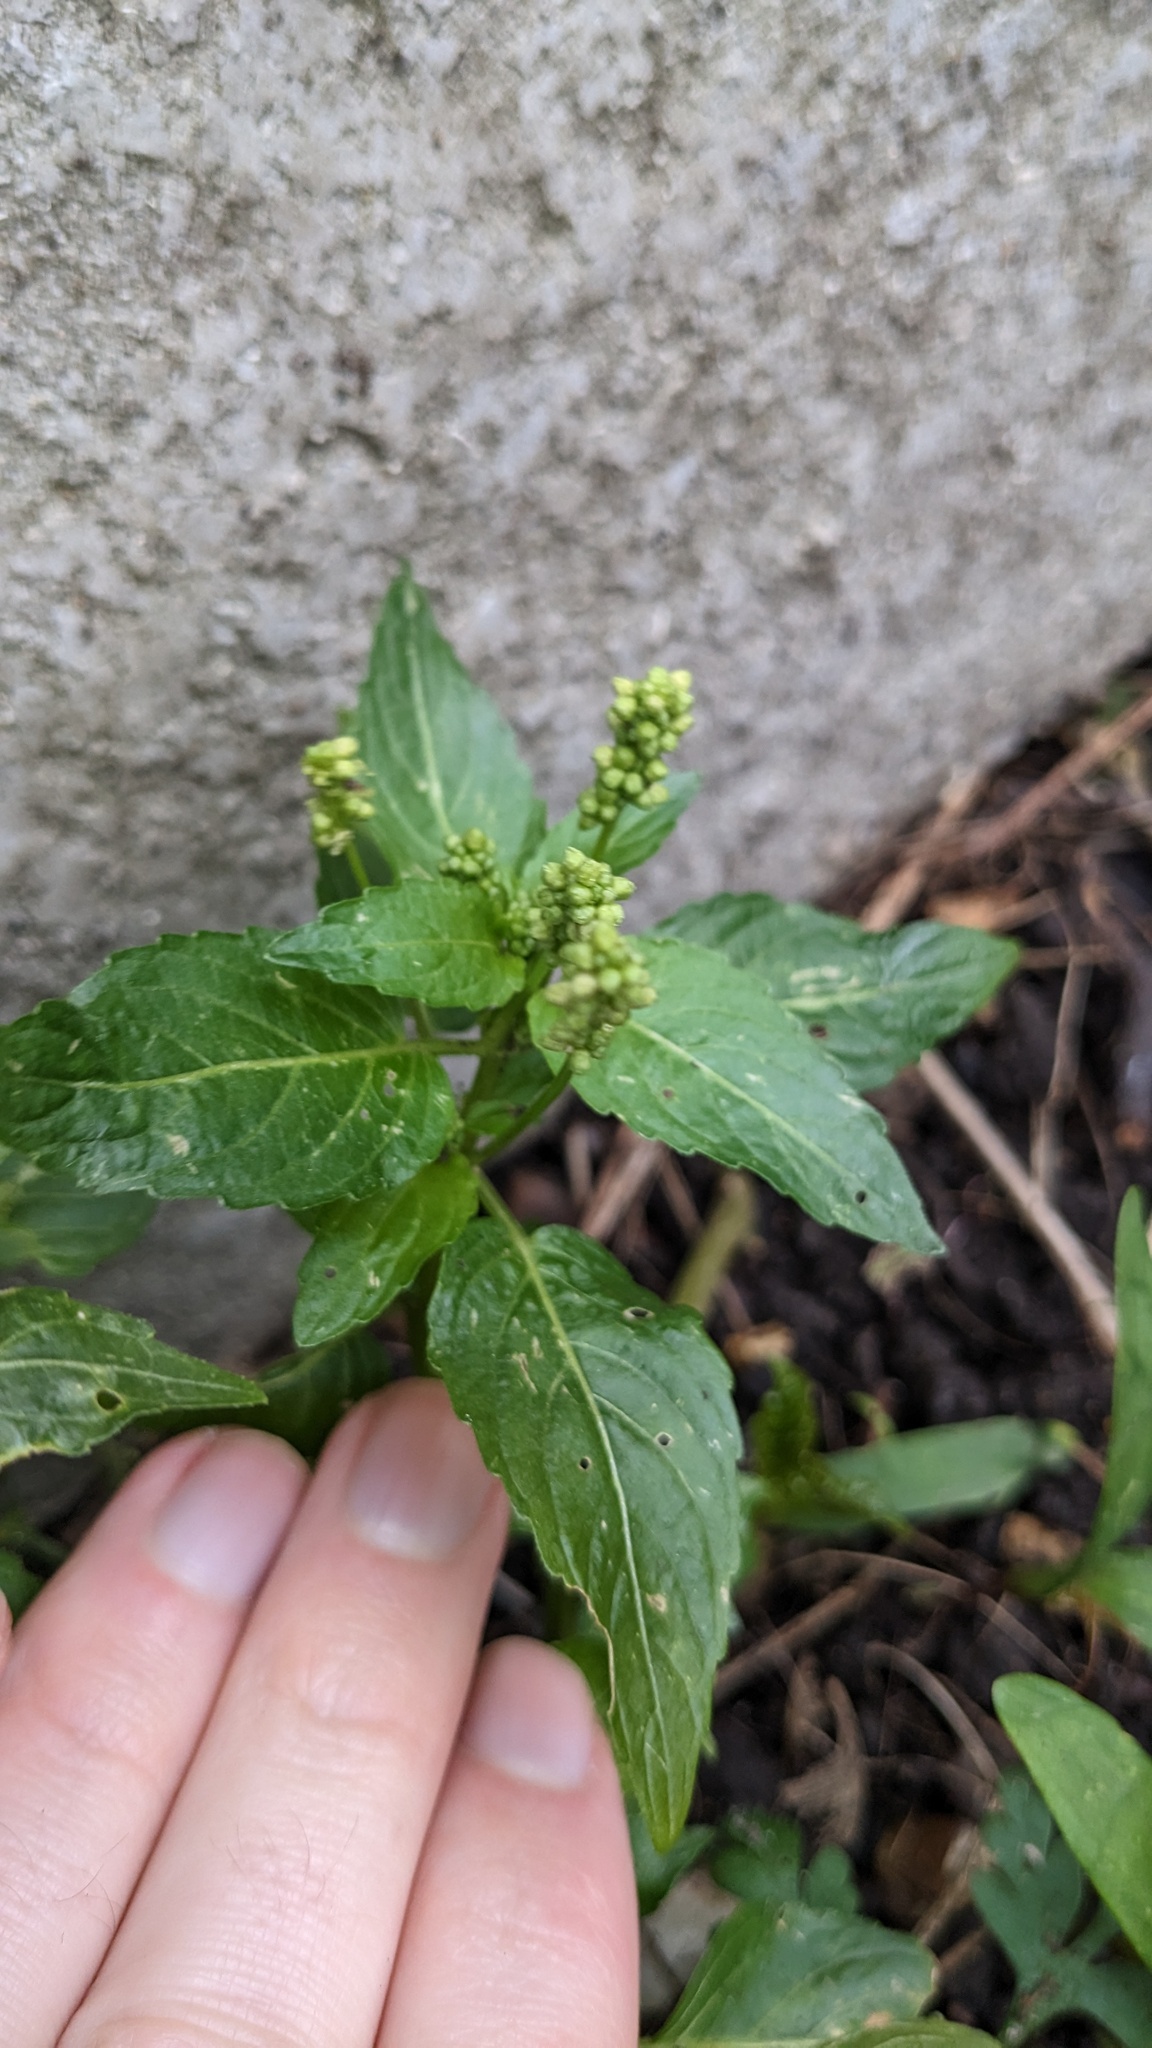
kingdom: Plantae
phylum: Tracheophyta
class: Magnoliopsida
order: Malpighiales
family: Euphorbiaceae
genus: Mercurialis
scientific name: Mercurialis annua
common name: Annual mercury
